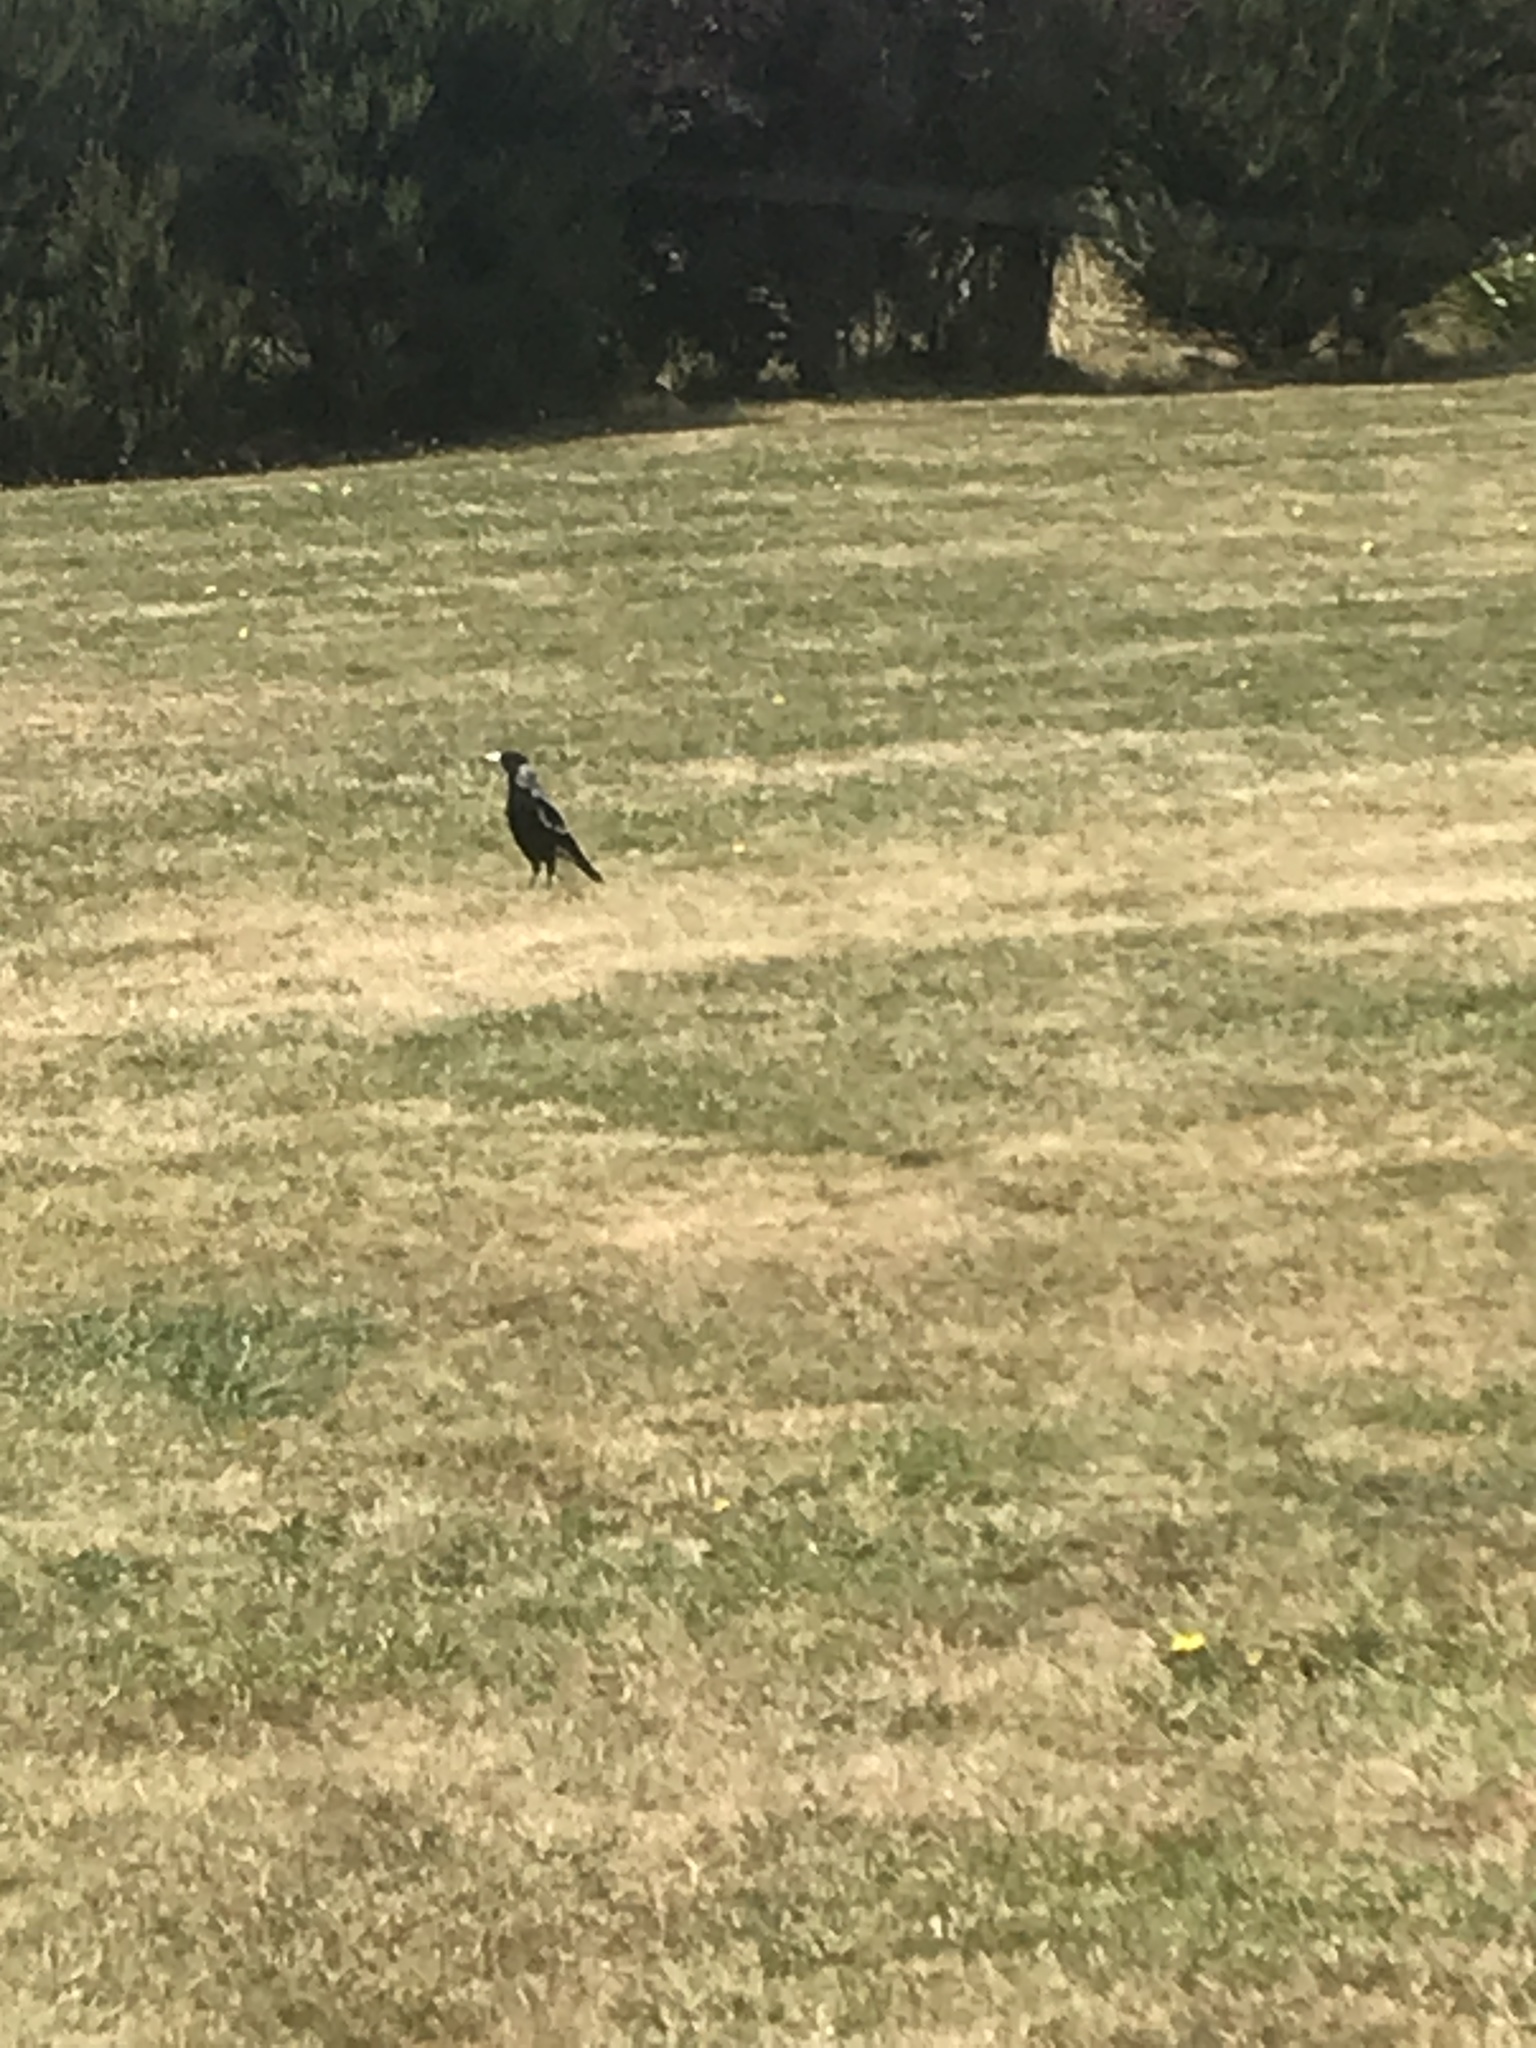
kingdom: Animalia
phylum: Chordata
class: Aves
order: Passeriformes
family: Cracticidae
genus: Gymnorhina
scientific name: Gymnorhina tibicen
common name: Australian magpie
